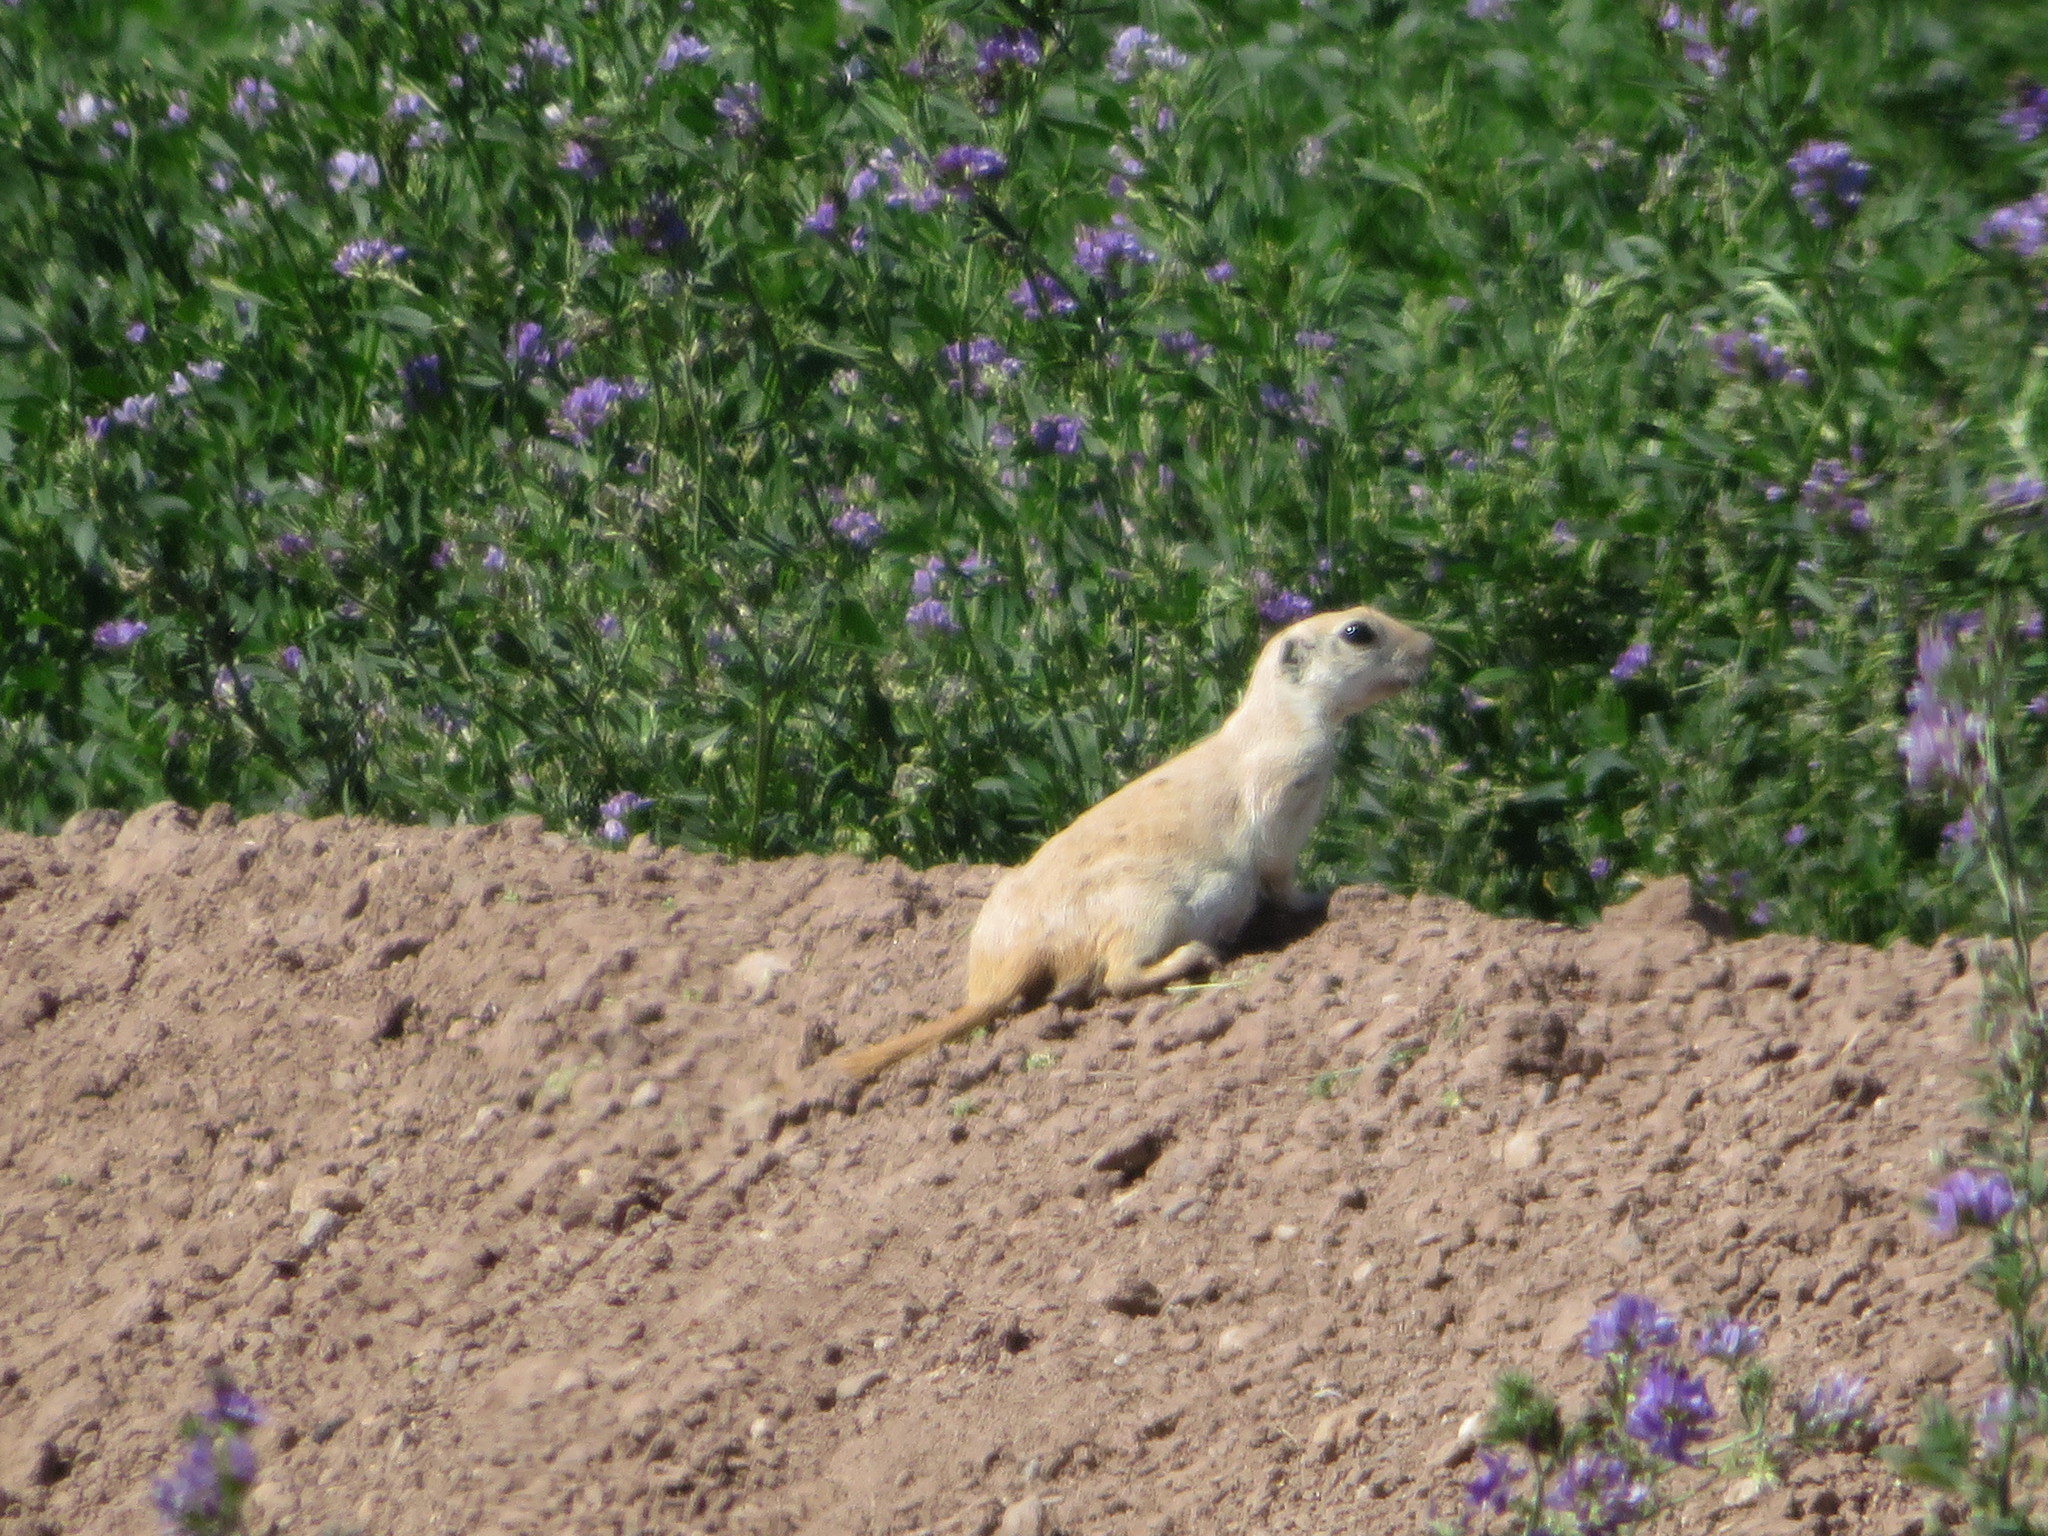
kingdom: Animalia
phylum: Chordata
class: Mammalia
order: Rodentia
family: Sciuridae
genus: Xerospermophilus
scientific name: Xerospermophilus tereticaudus
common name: Round-tailed ground squirrel
